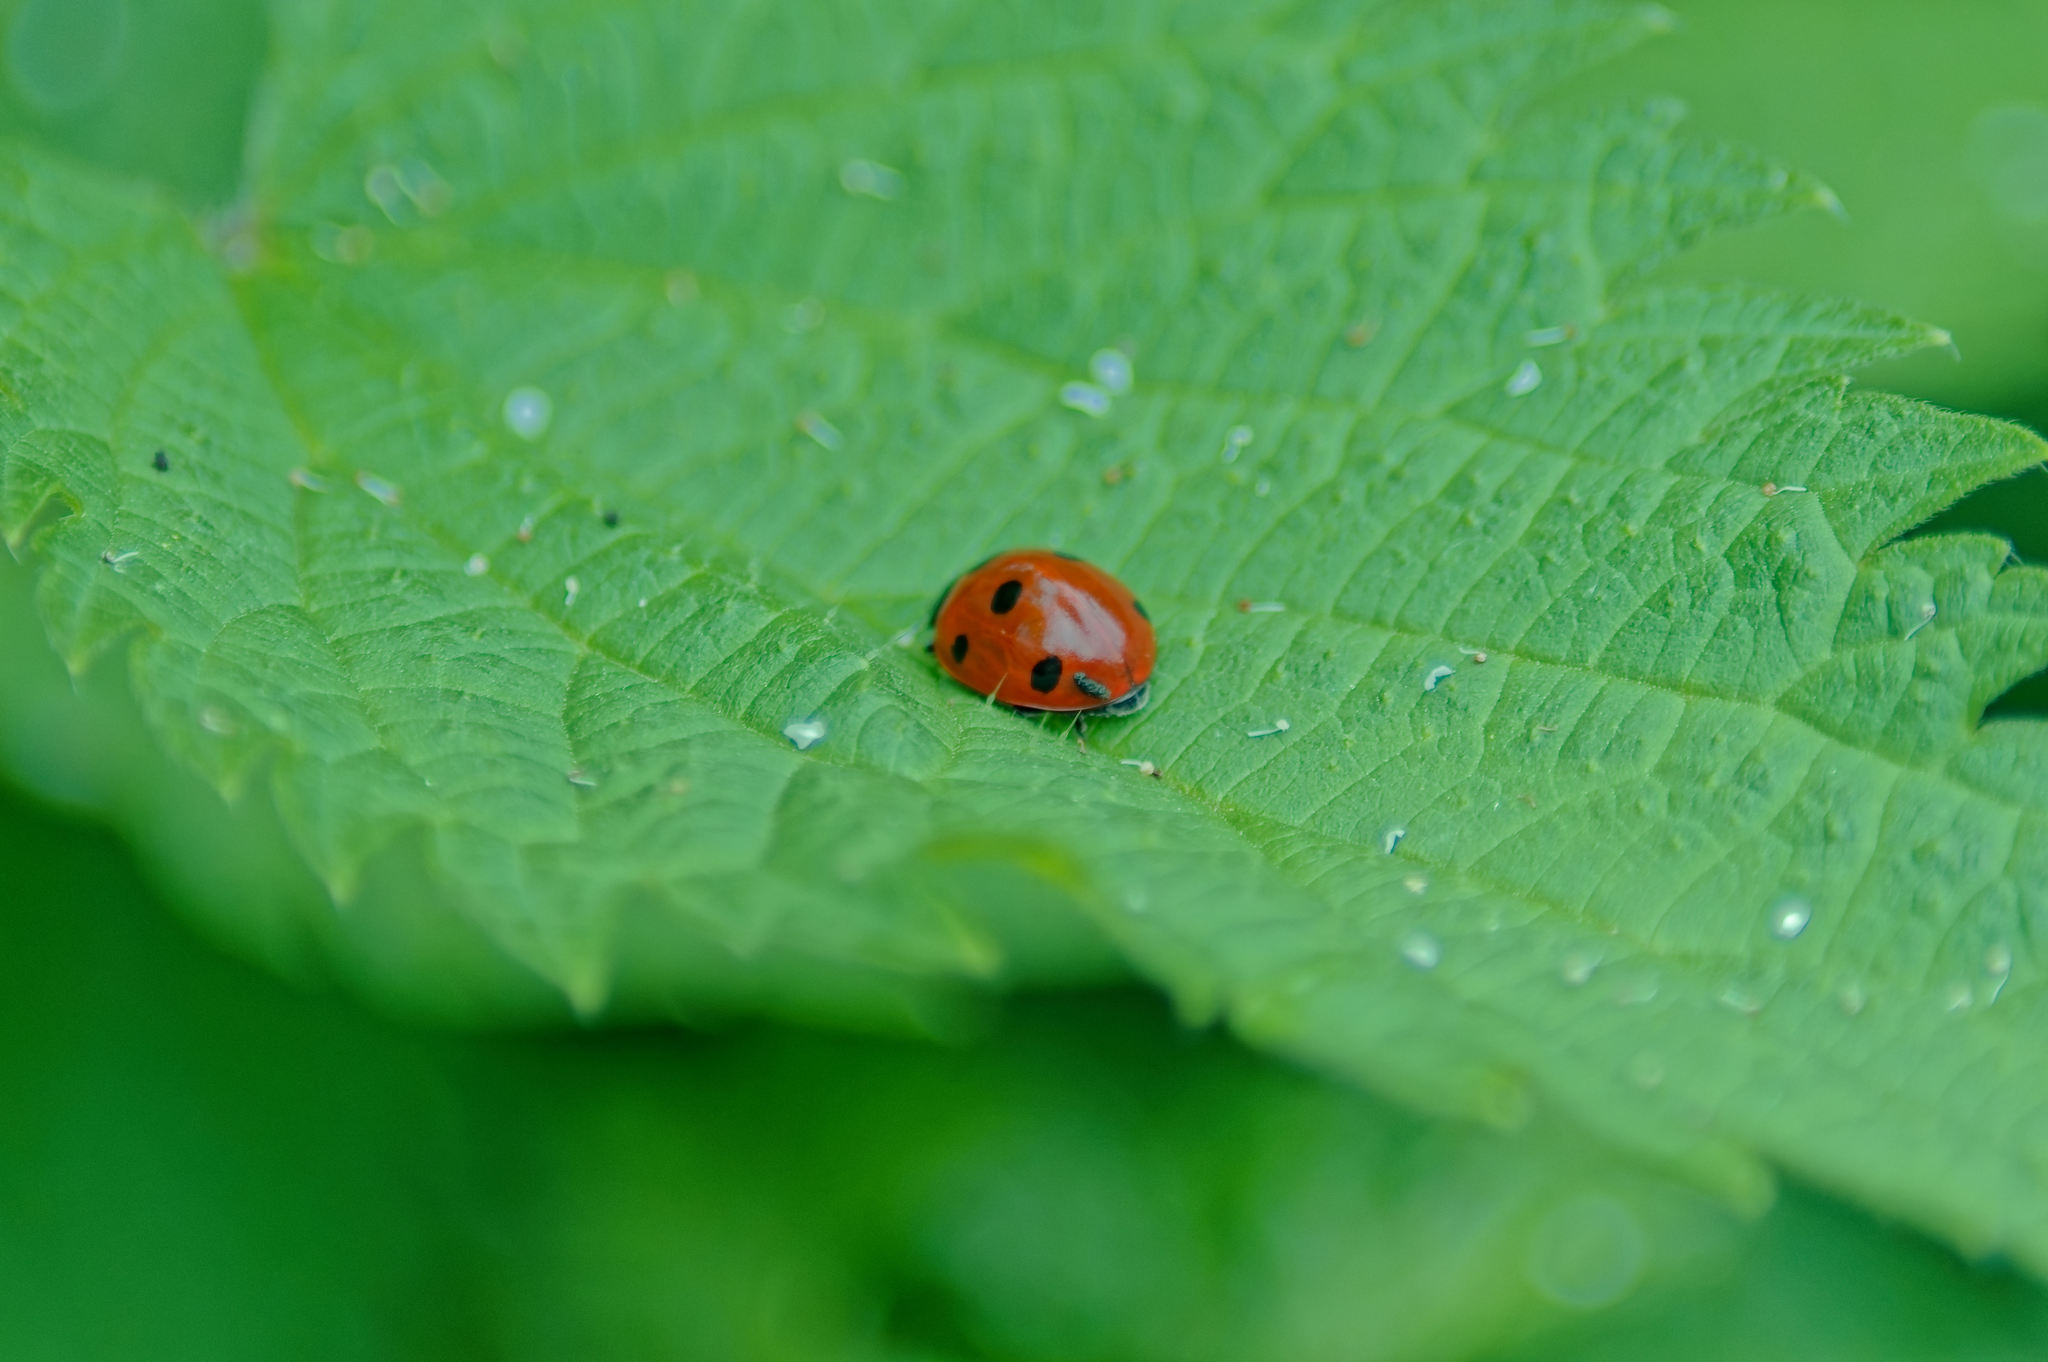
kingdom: Animalia
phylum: Arthropoda
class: Insecta
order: Coleoptera
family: Coccinellidae
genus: Coccinella
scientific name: Coccinella septempunctata
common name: Sevenspotted lady beetle
